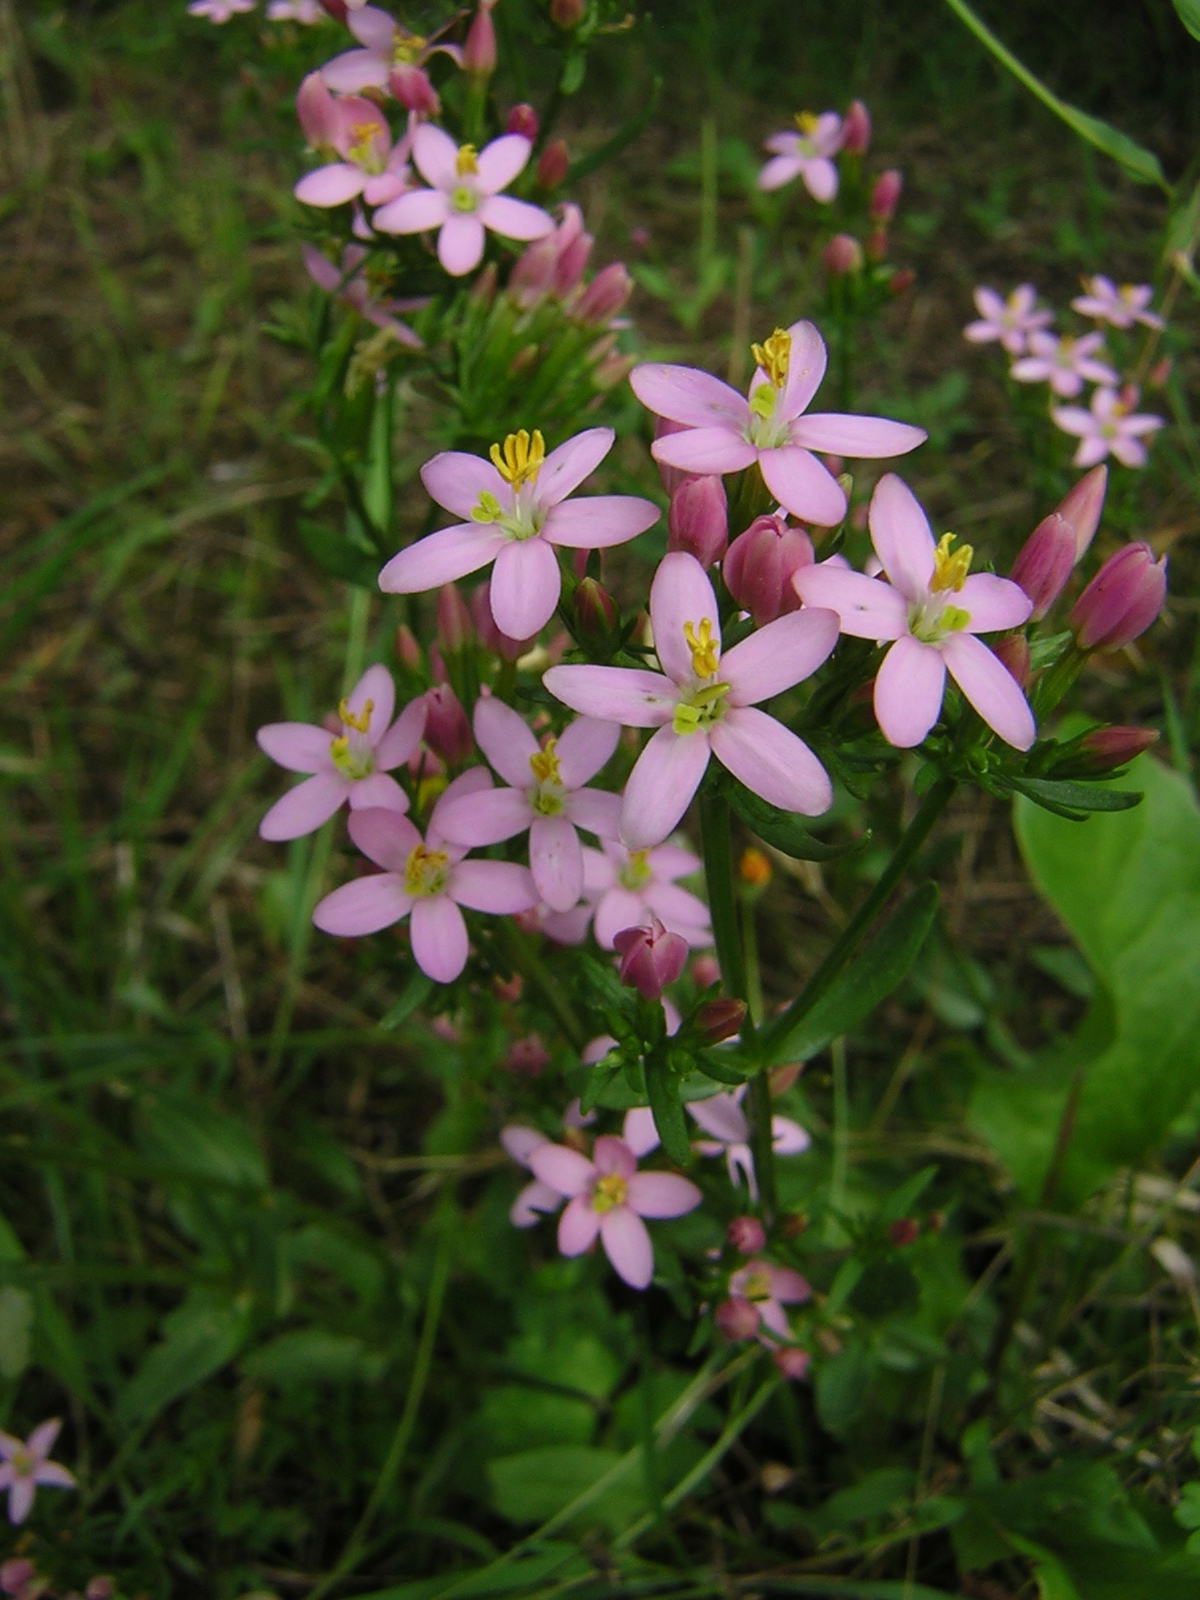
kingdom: Plantae
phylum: Tracheophyta
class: Magnoliopsida
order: Gentianales
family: Gentianaceae
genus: Centaurium
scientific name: Centaurium erythraea
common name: Common centaury
